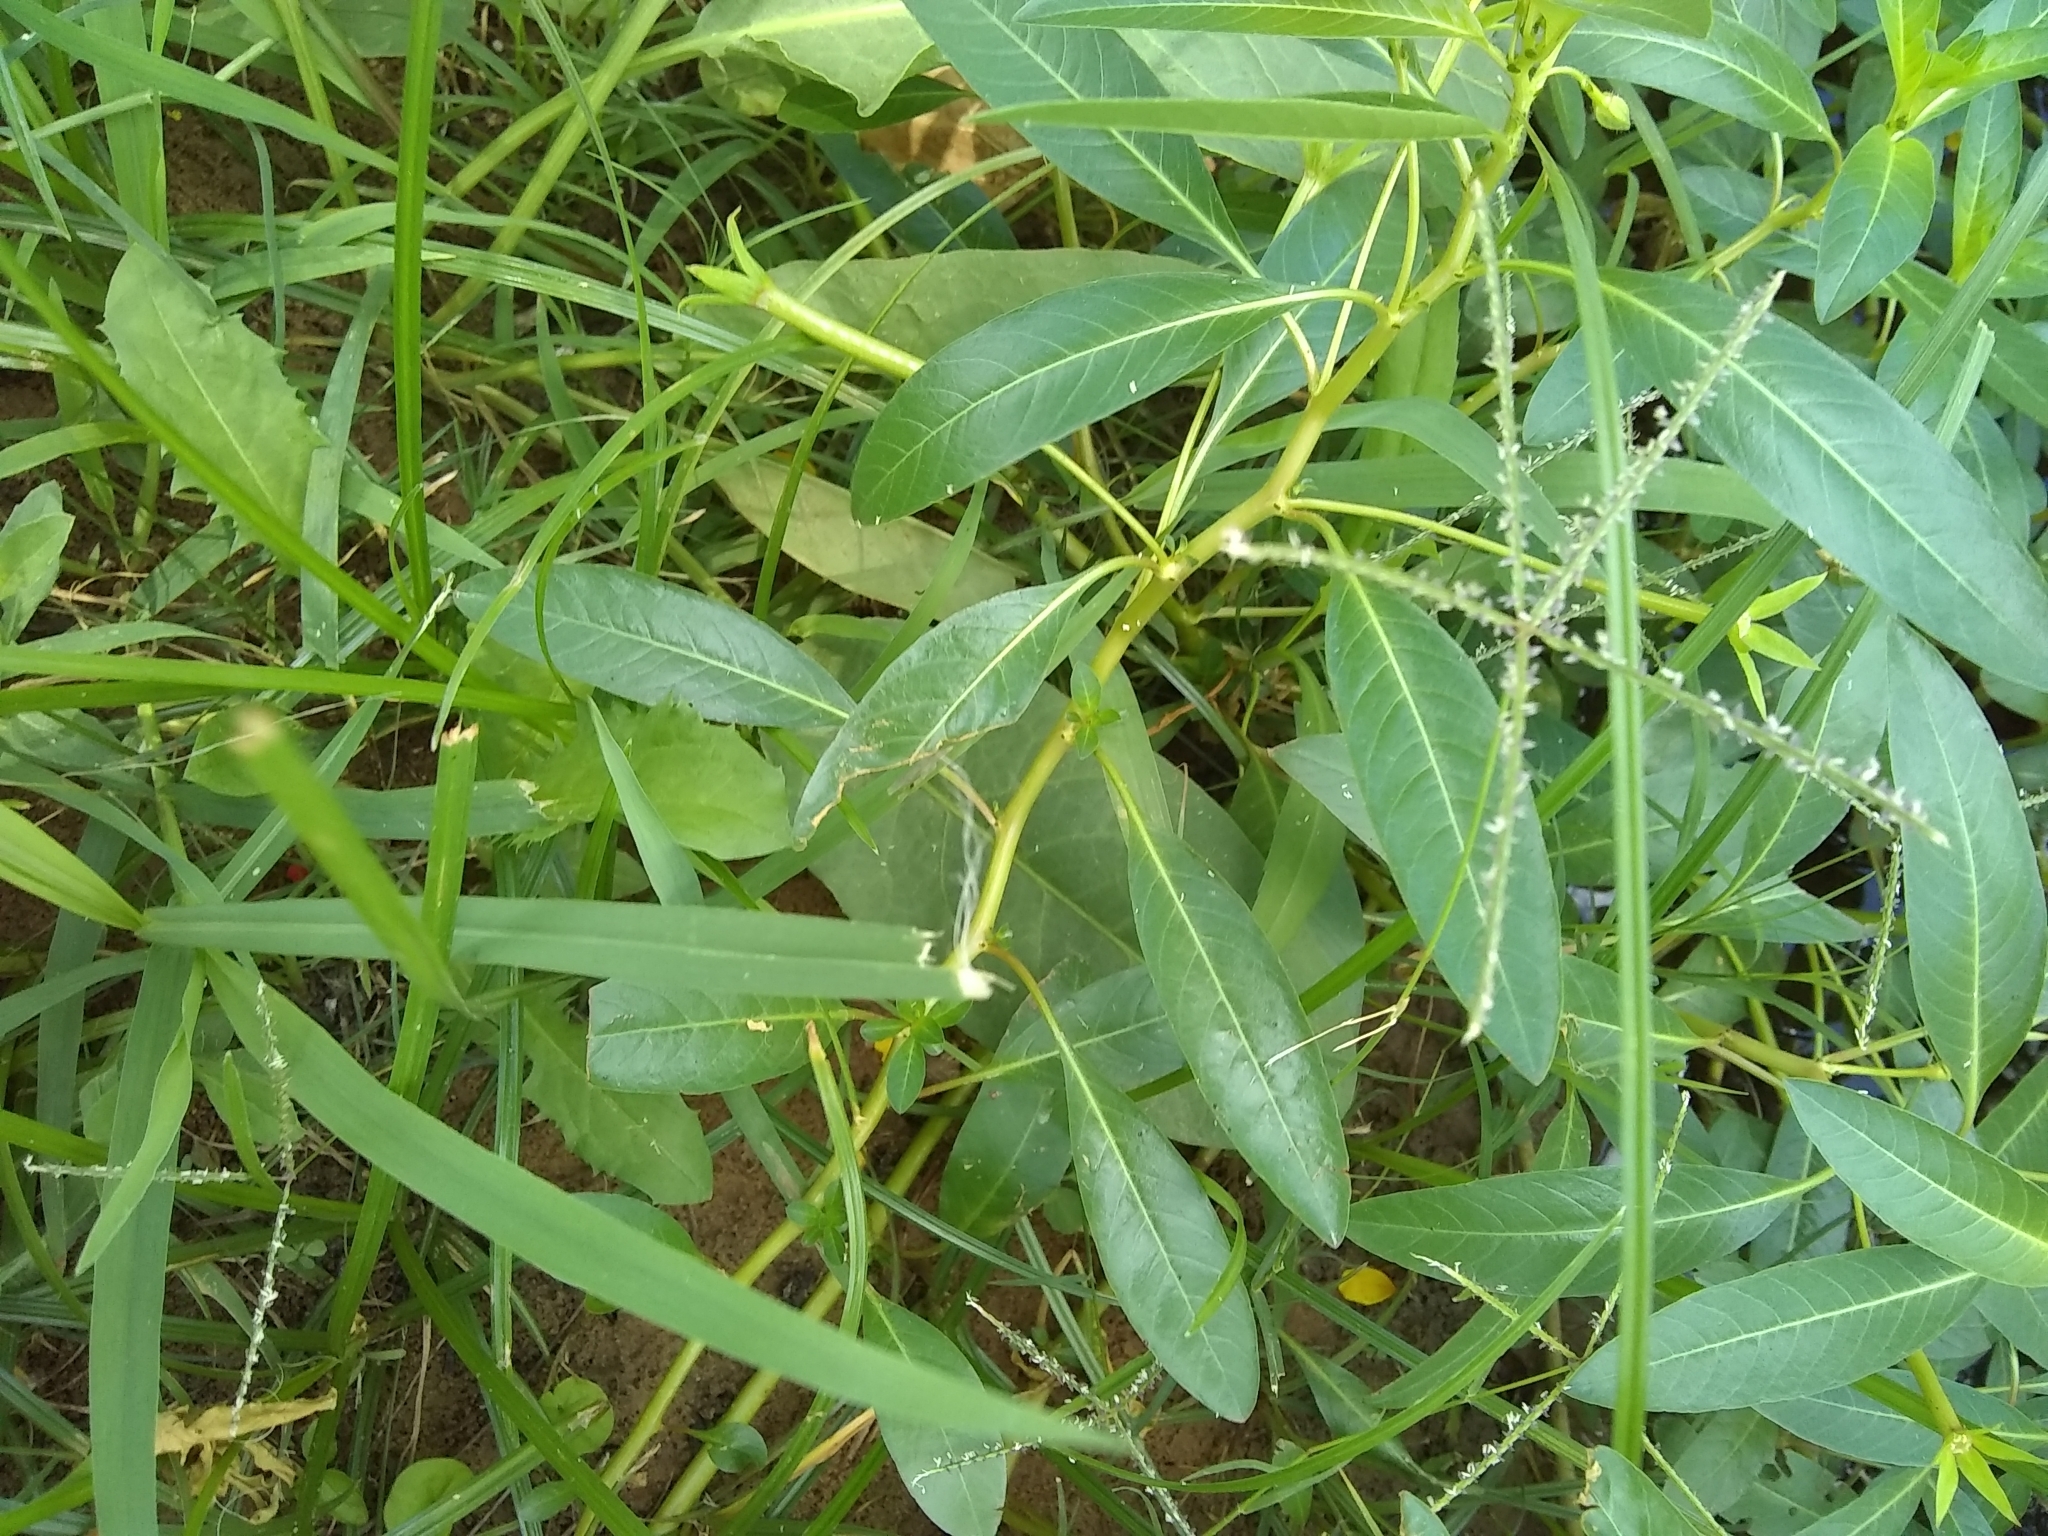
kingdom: Plantae
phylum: Tracheophyta
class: Magnoliopsida
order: Myrtales
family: Onagraceae
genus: Ludwigia
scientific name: Ludwigia peploides
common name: Floating primrose-willow
